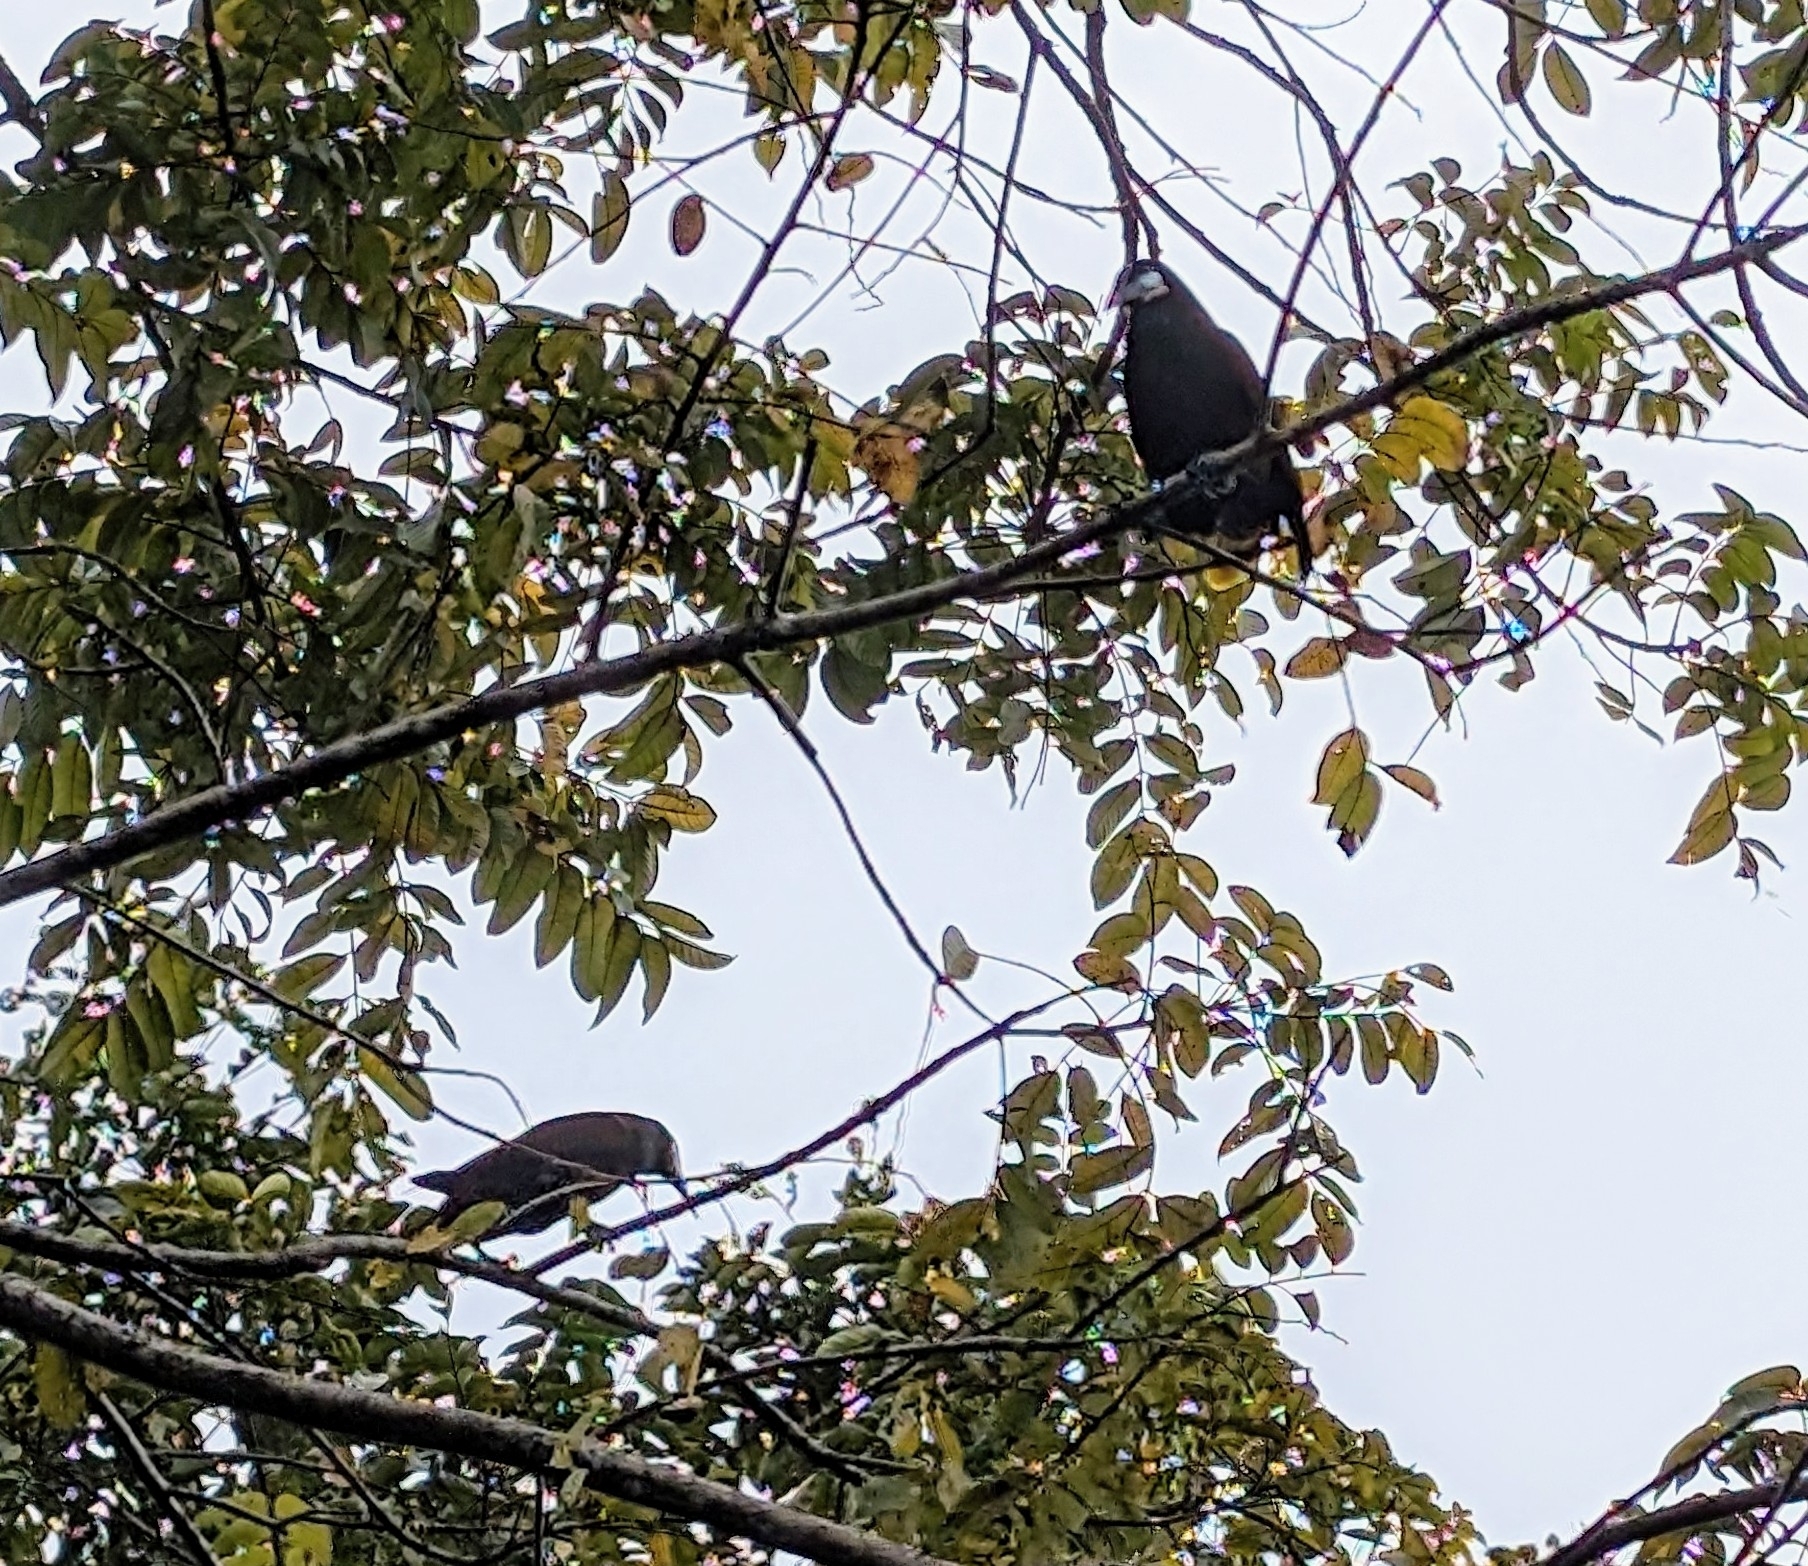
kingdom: Animalia
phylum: Chordata
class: Aves
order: Passeriformes
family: Icteridae
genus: Psarocolius
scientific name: Psarocolius montezuma
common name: Montezuma oropendola
